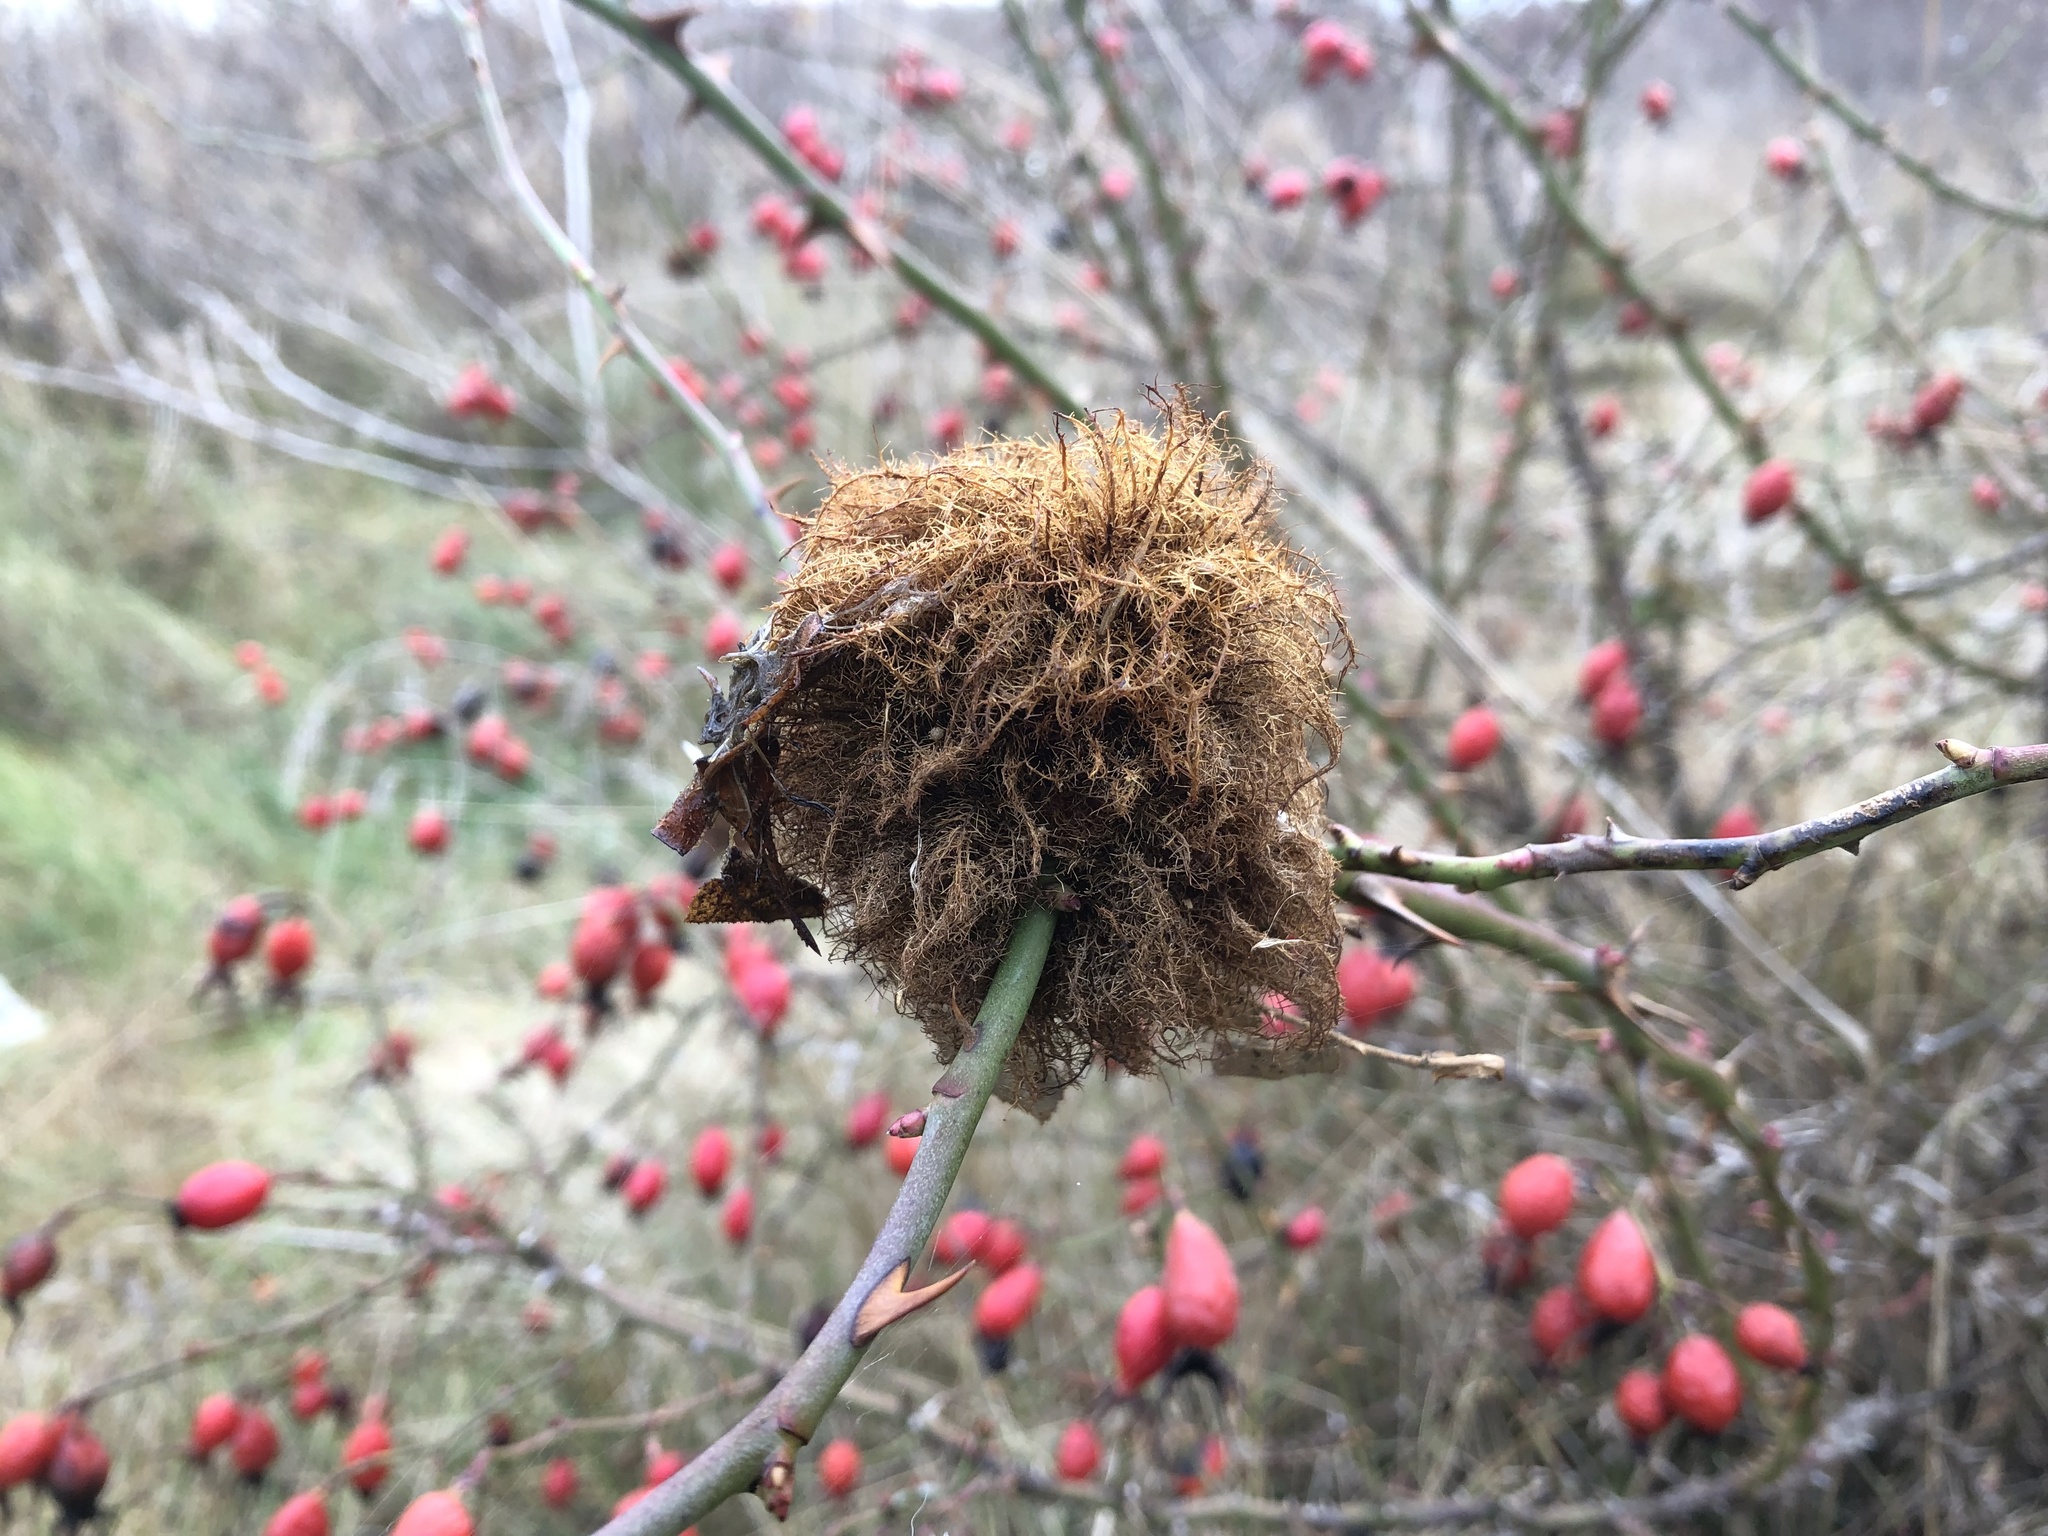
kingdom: Animalia
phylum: Arthropoda
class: Insecta
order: Hymenoptera
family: Cynipidae
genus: Diplolepis
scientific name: Diplolepis rosae
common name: Bedeguar gall
